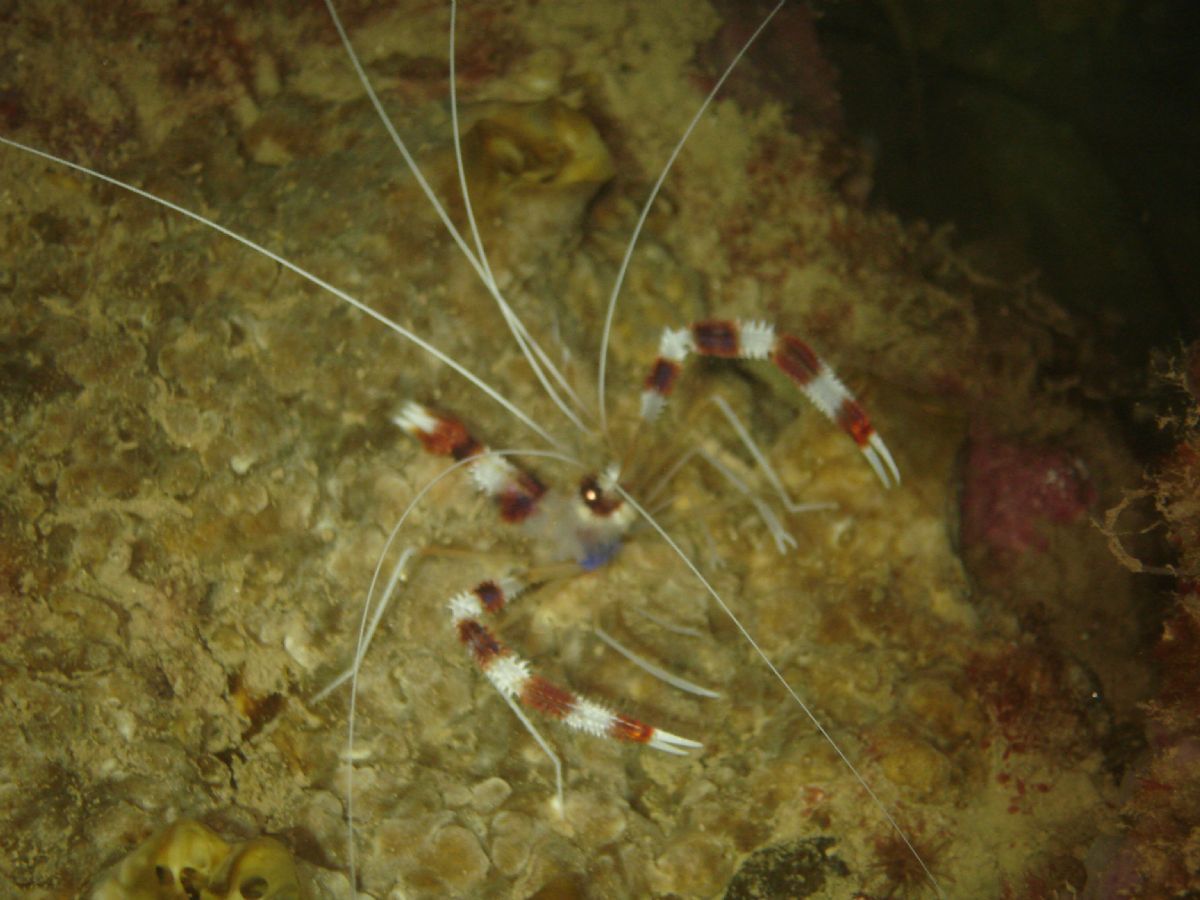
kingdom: Animalia
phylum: Arthropoda
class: Malacostraca
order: Decapoda
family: Stenopodidae
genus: Stenopus
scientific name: Stenopus hispidus
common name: Banded coral shrimp
